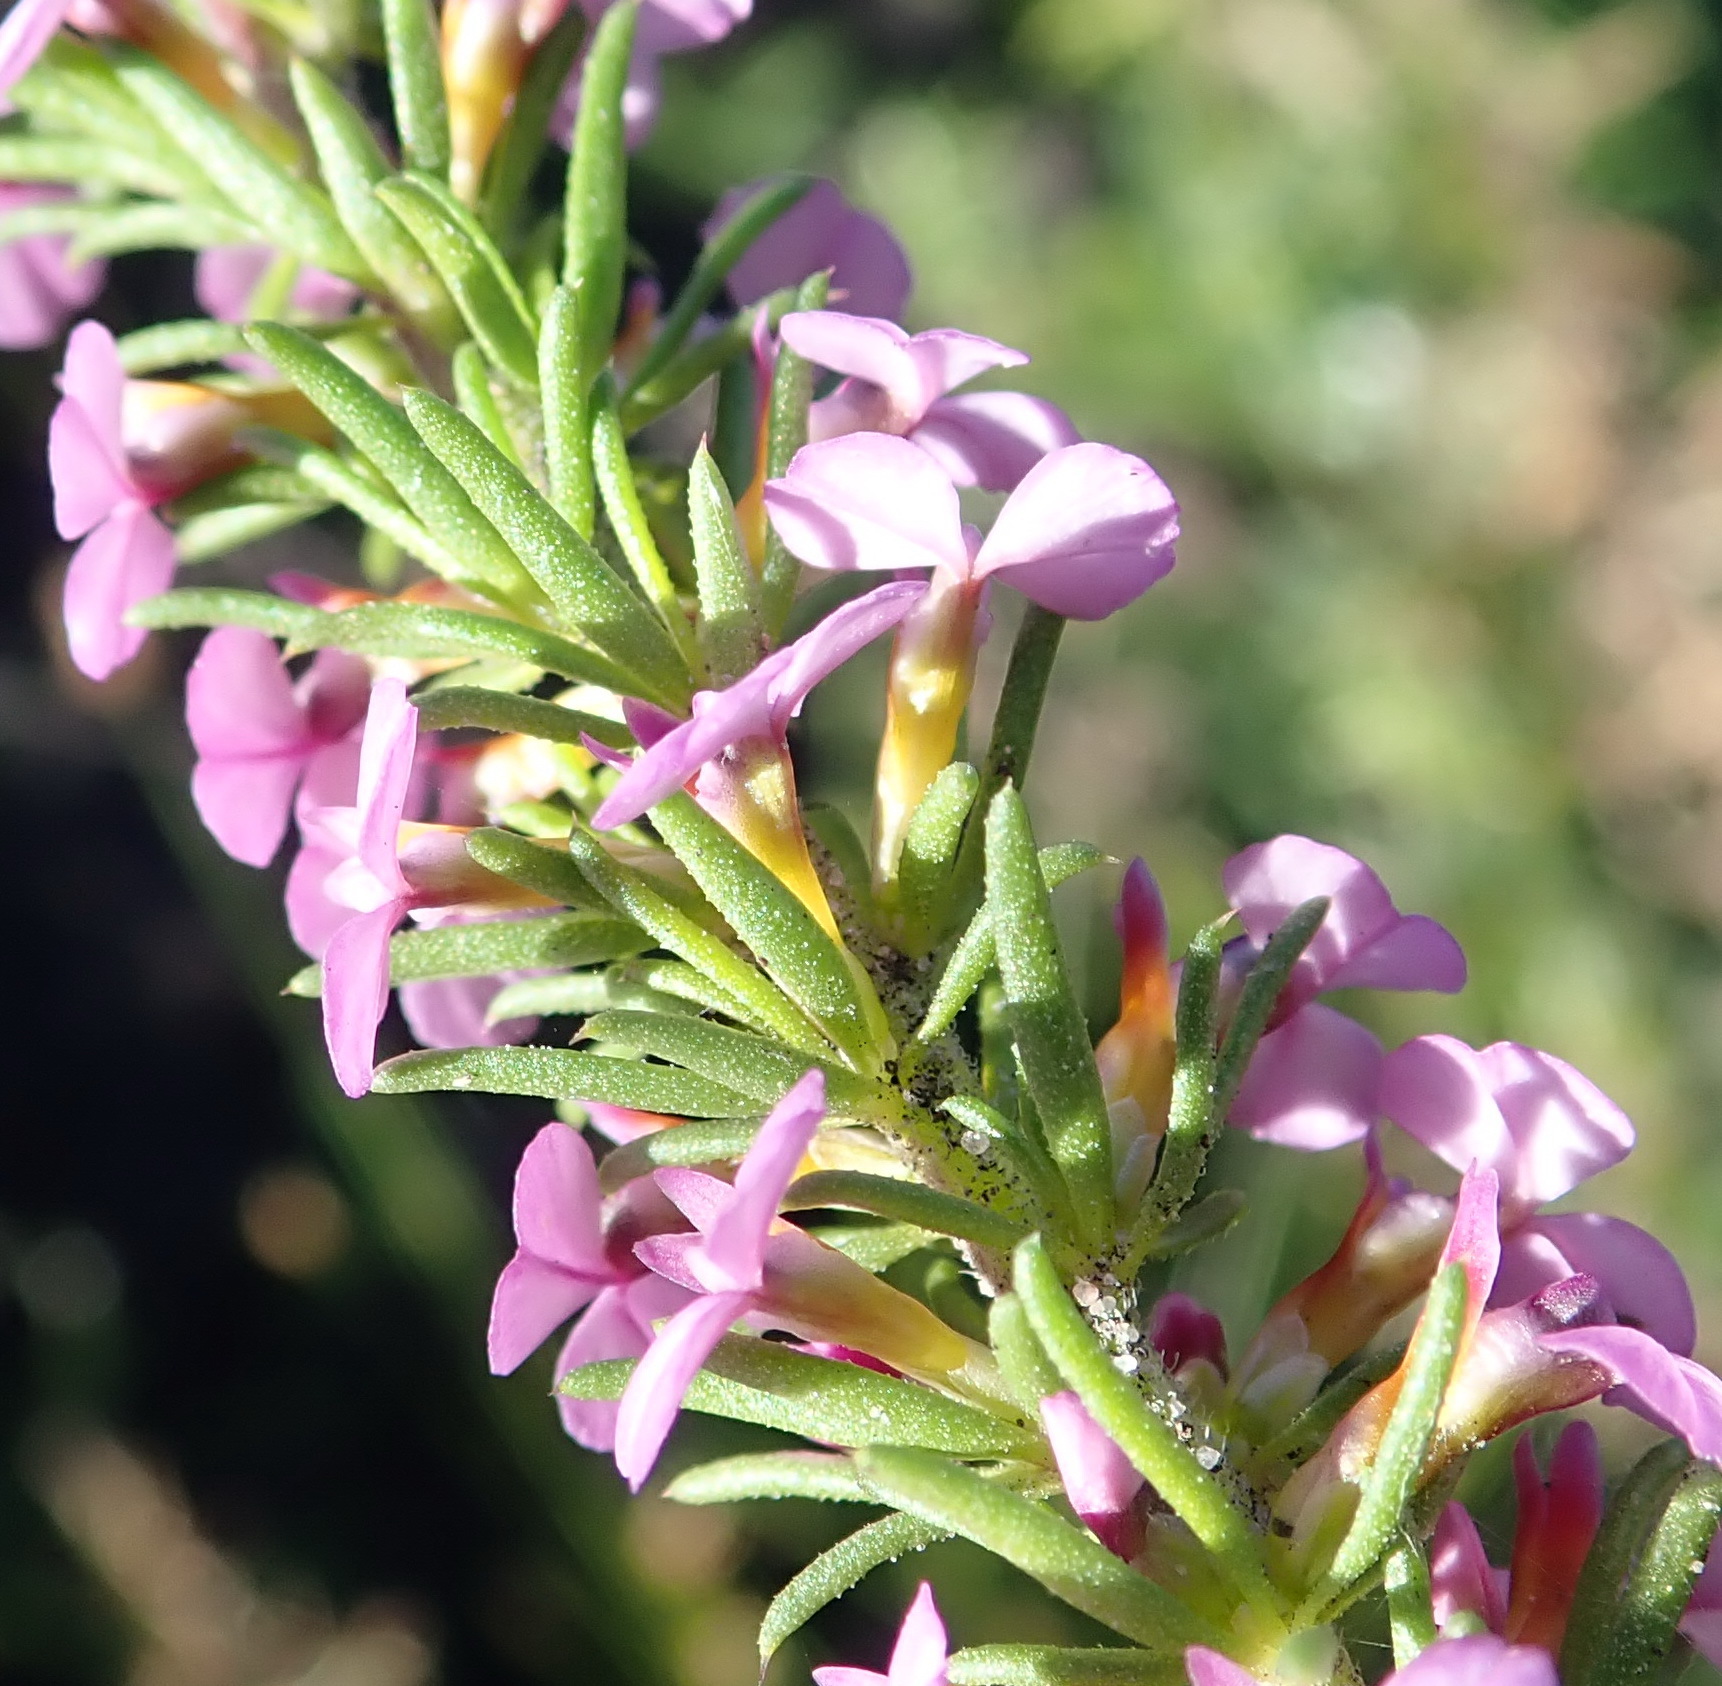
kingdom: Plantae
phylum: Tracheophyta
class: Magnoliopsida
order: Fabales
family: Polygalaceae
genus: Muraltia
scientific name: Muraltia satureioides
